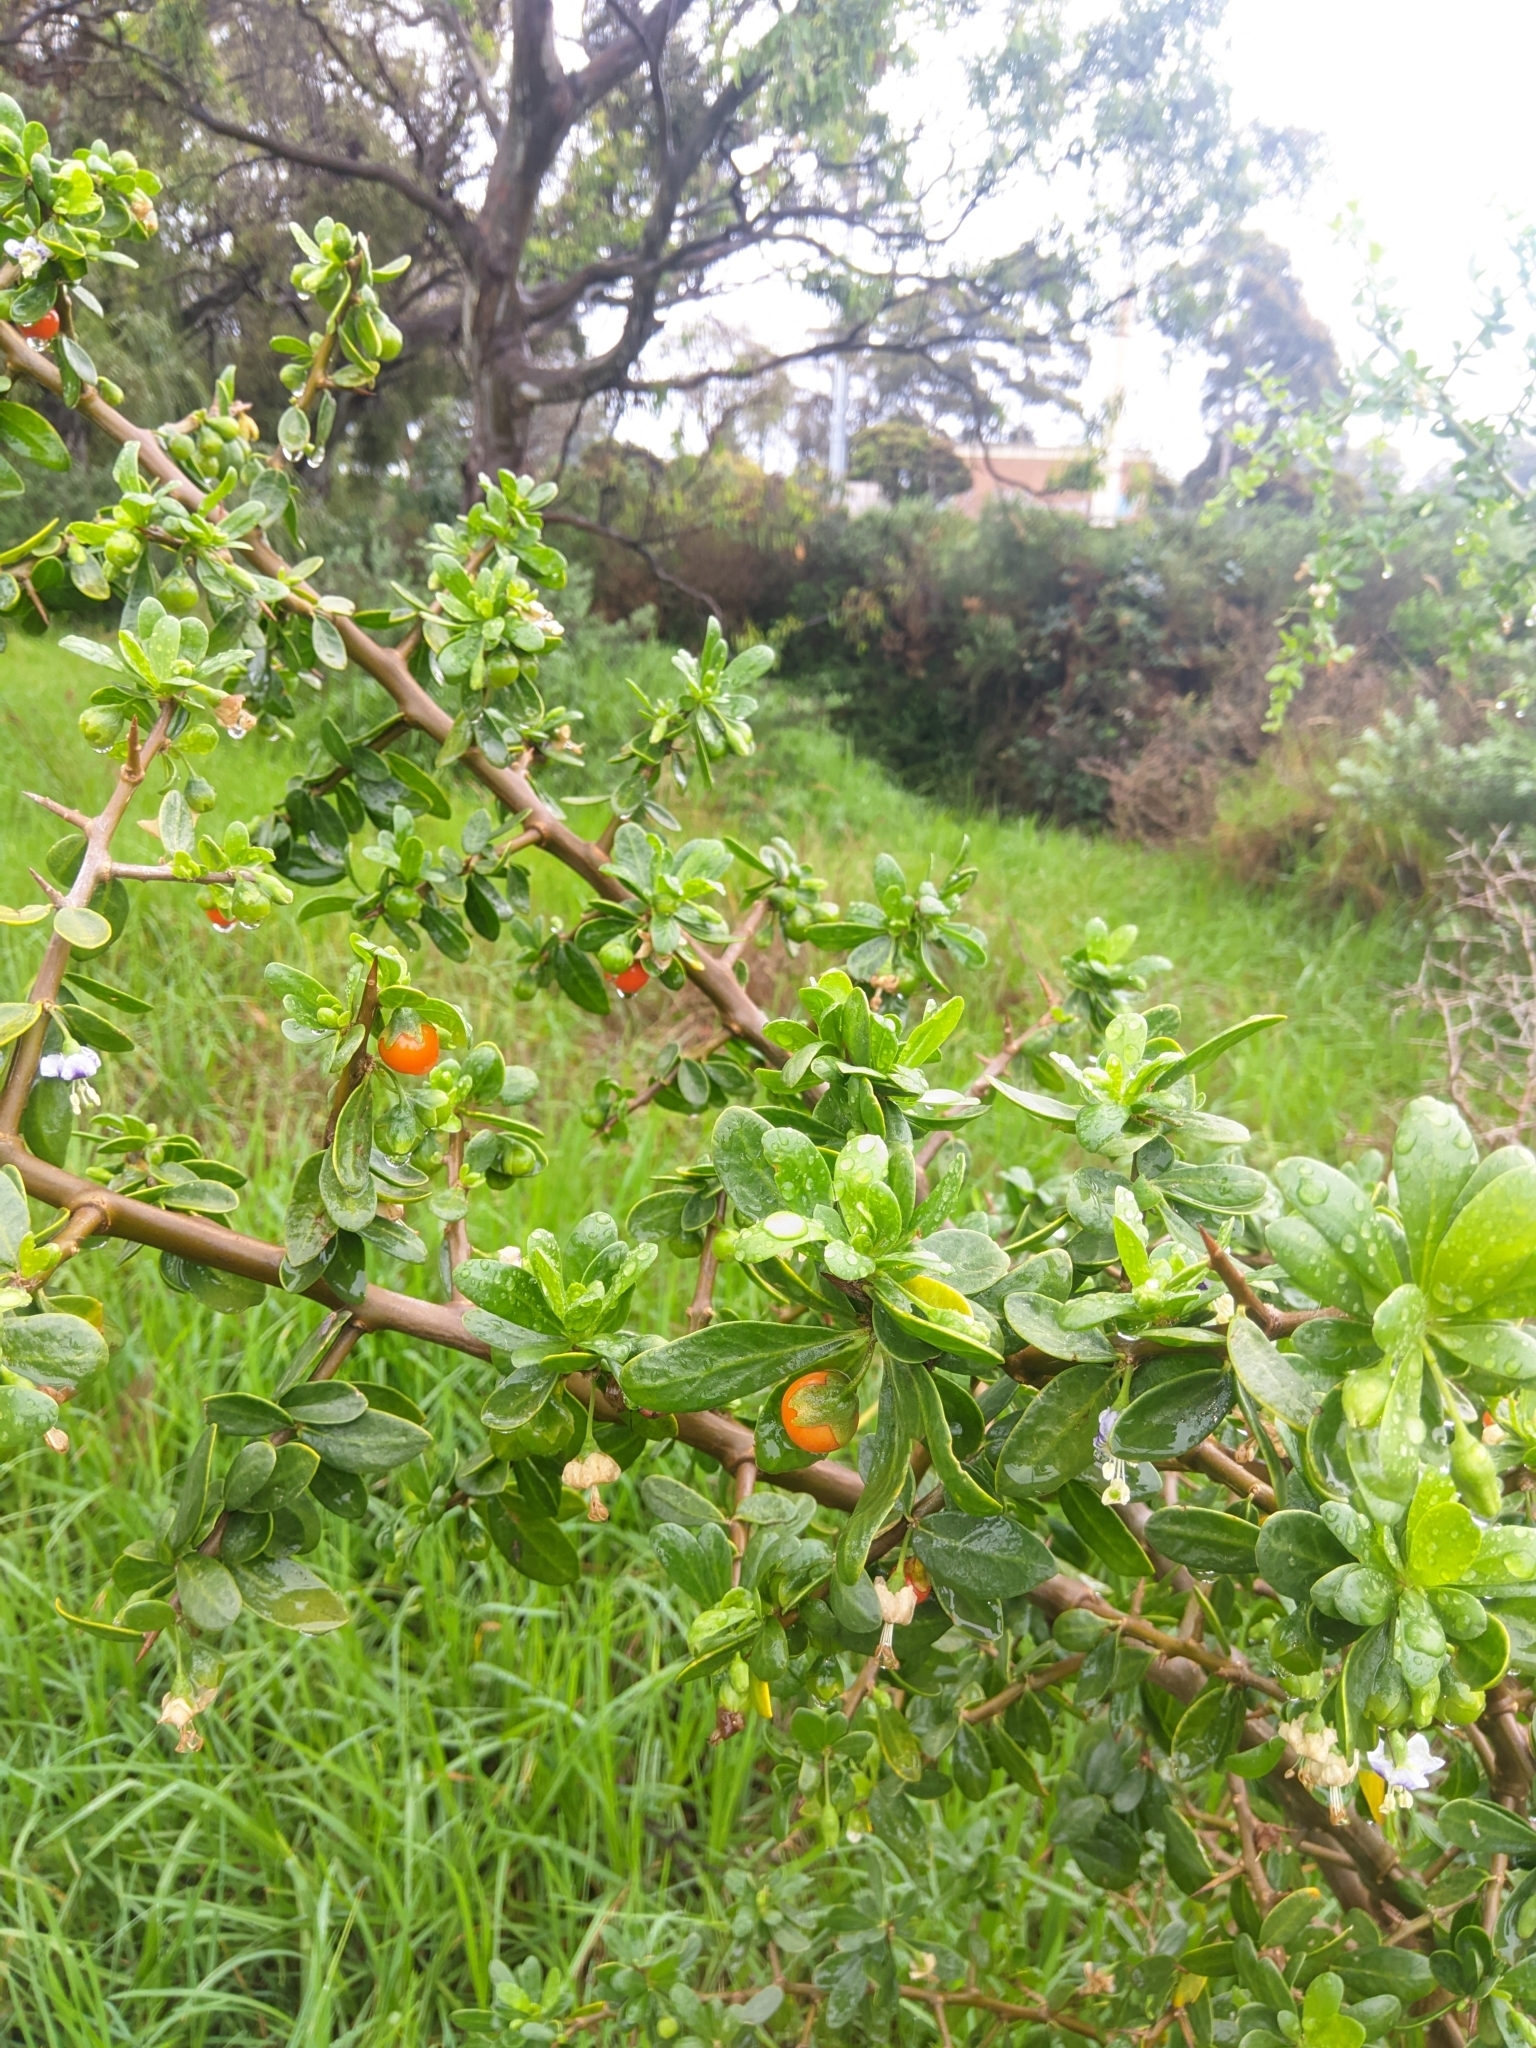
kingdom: Plantae
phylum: Tracheophyta
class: Magnoliopsida
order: Solanales
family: Solanaceae
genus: Lycium
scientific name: Lycium ferocissimum
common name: African boxthorn
